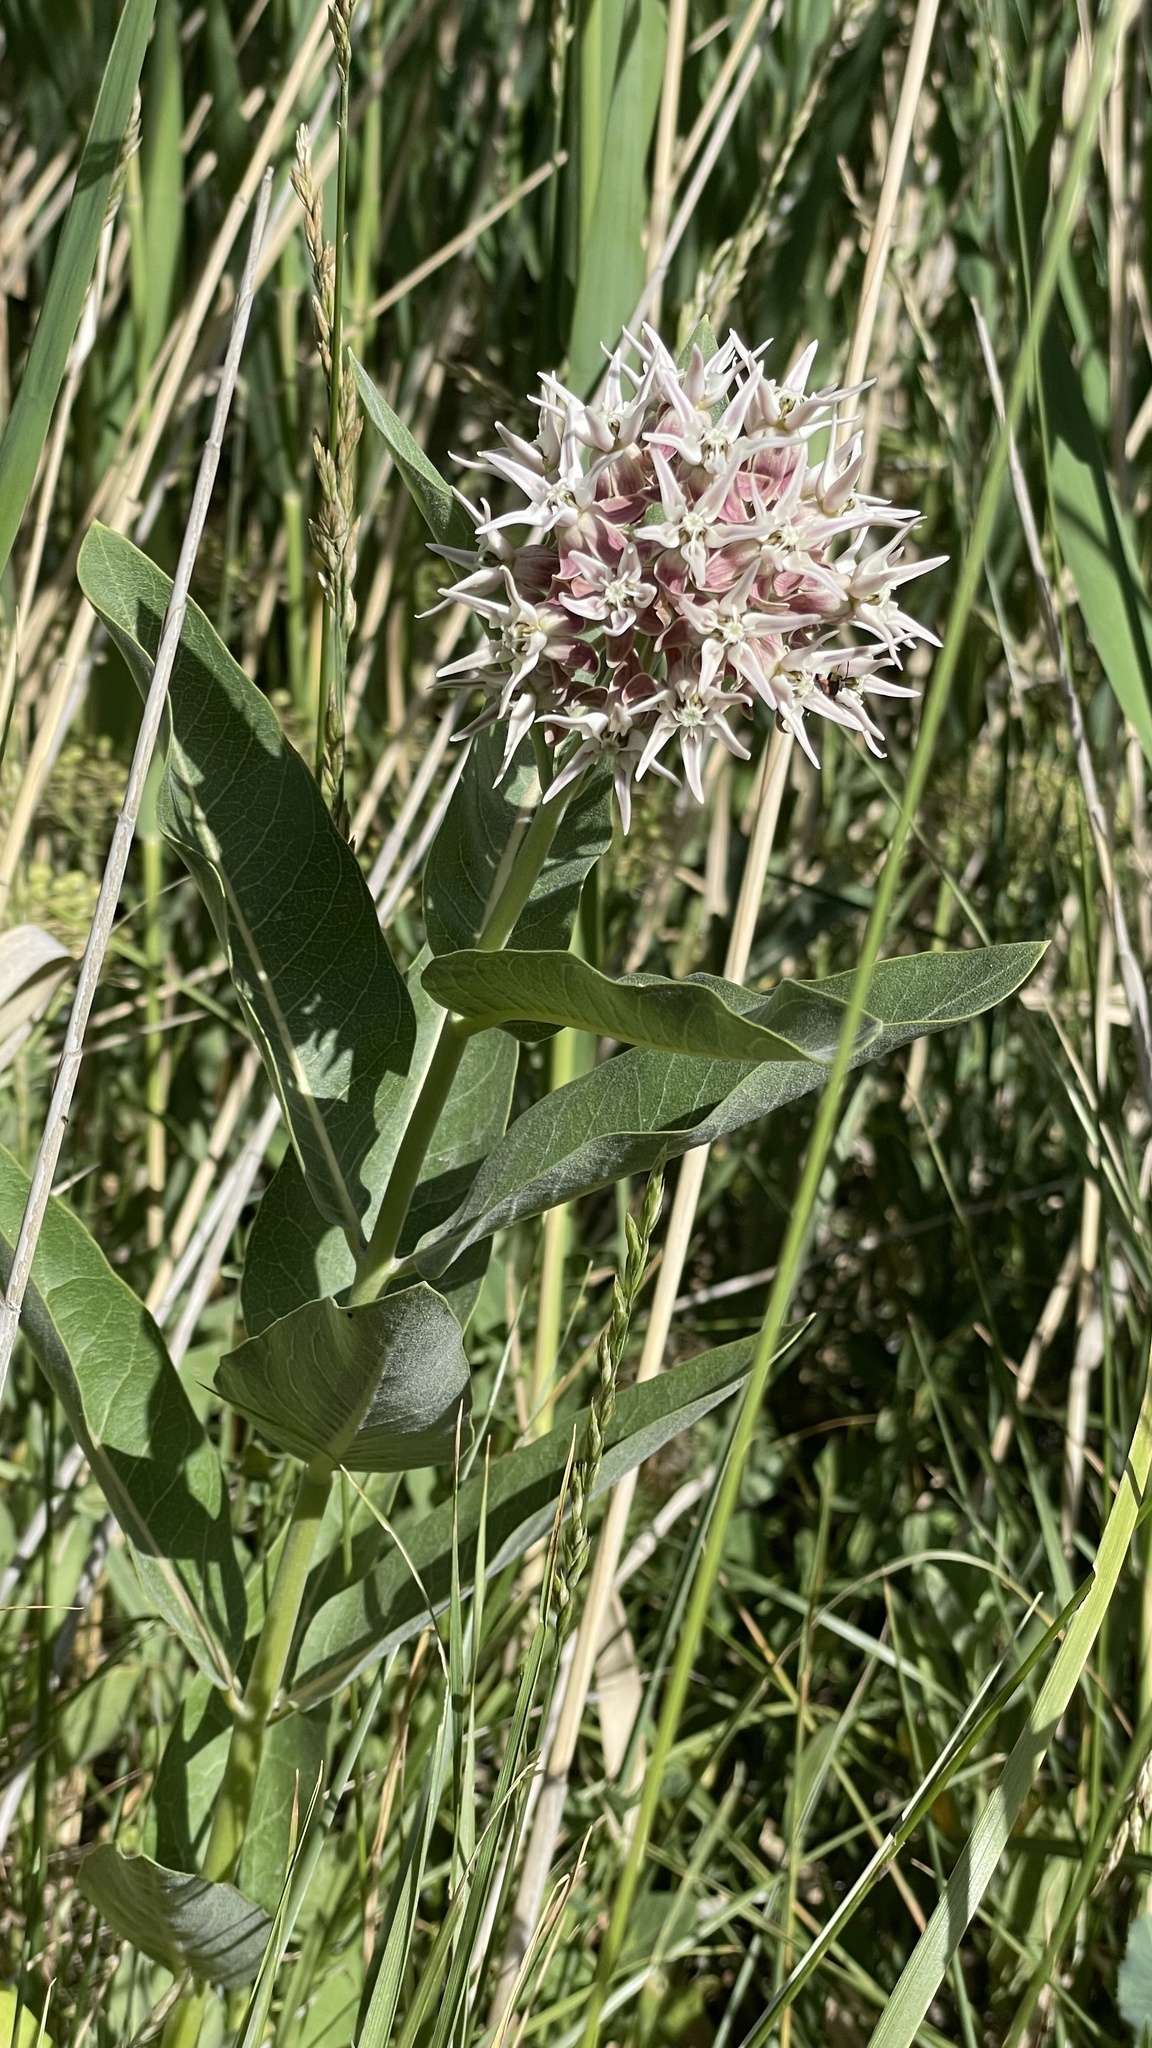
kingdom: Plantae
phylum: Tracheophyta
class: Magnoliopsida
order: Gentianales
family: Apocynaceae
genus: Asclepias
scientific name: Asclepias speciosa
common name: Showy milkweed
